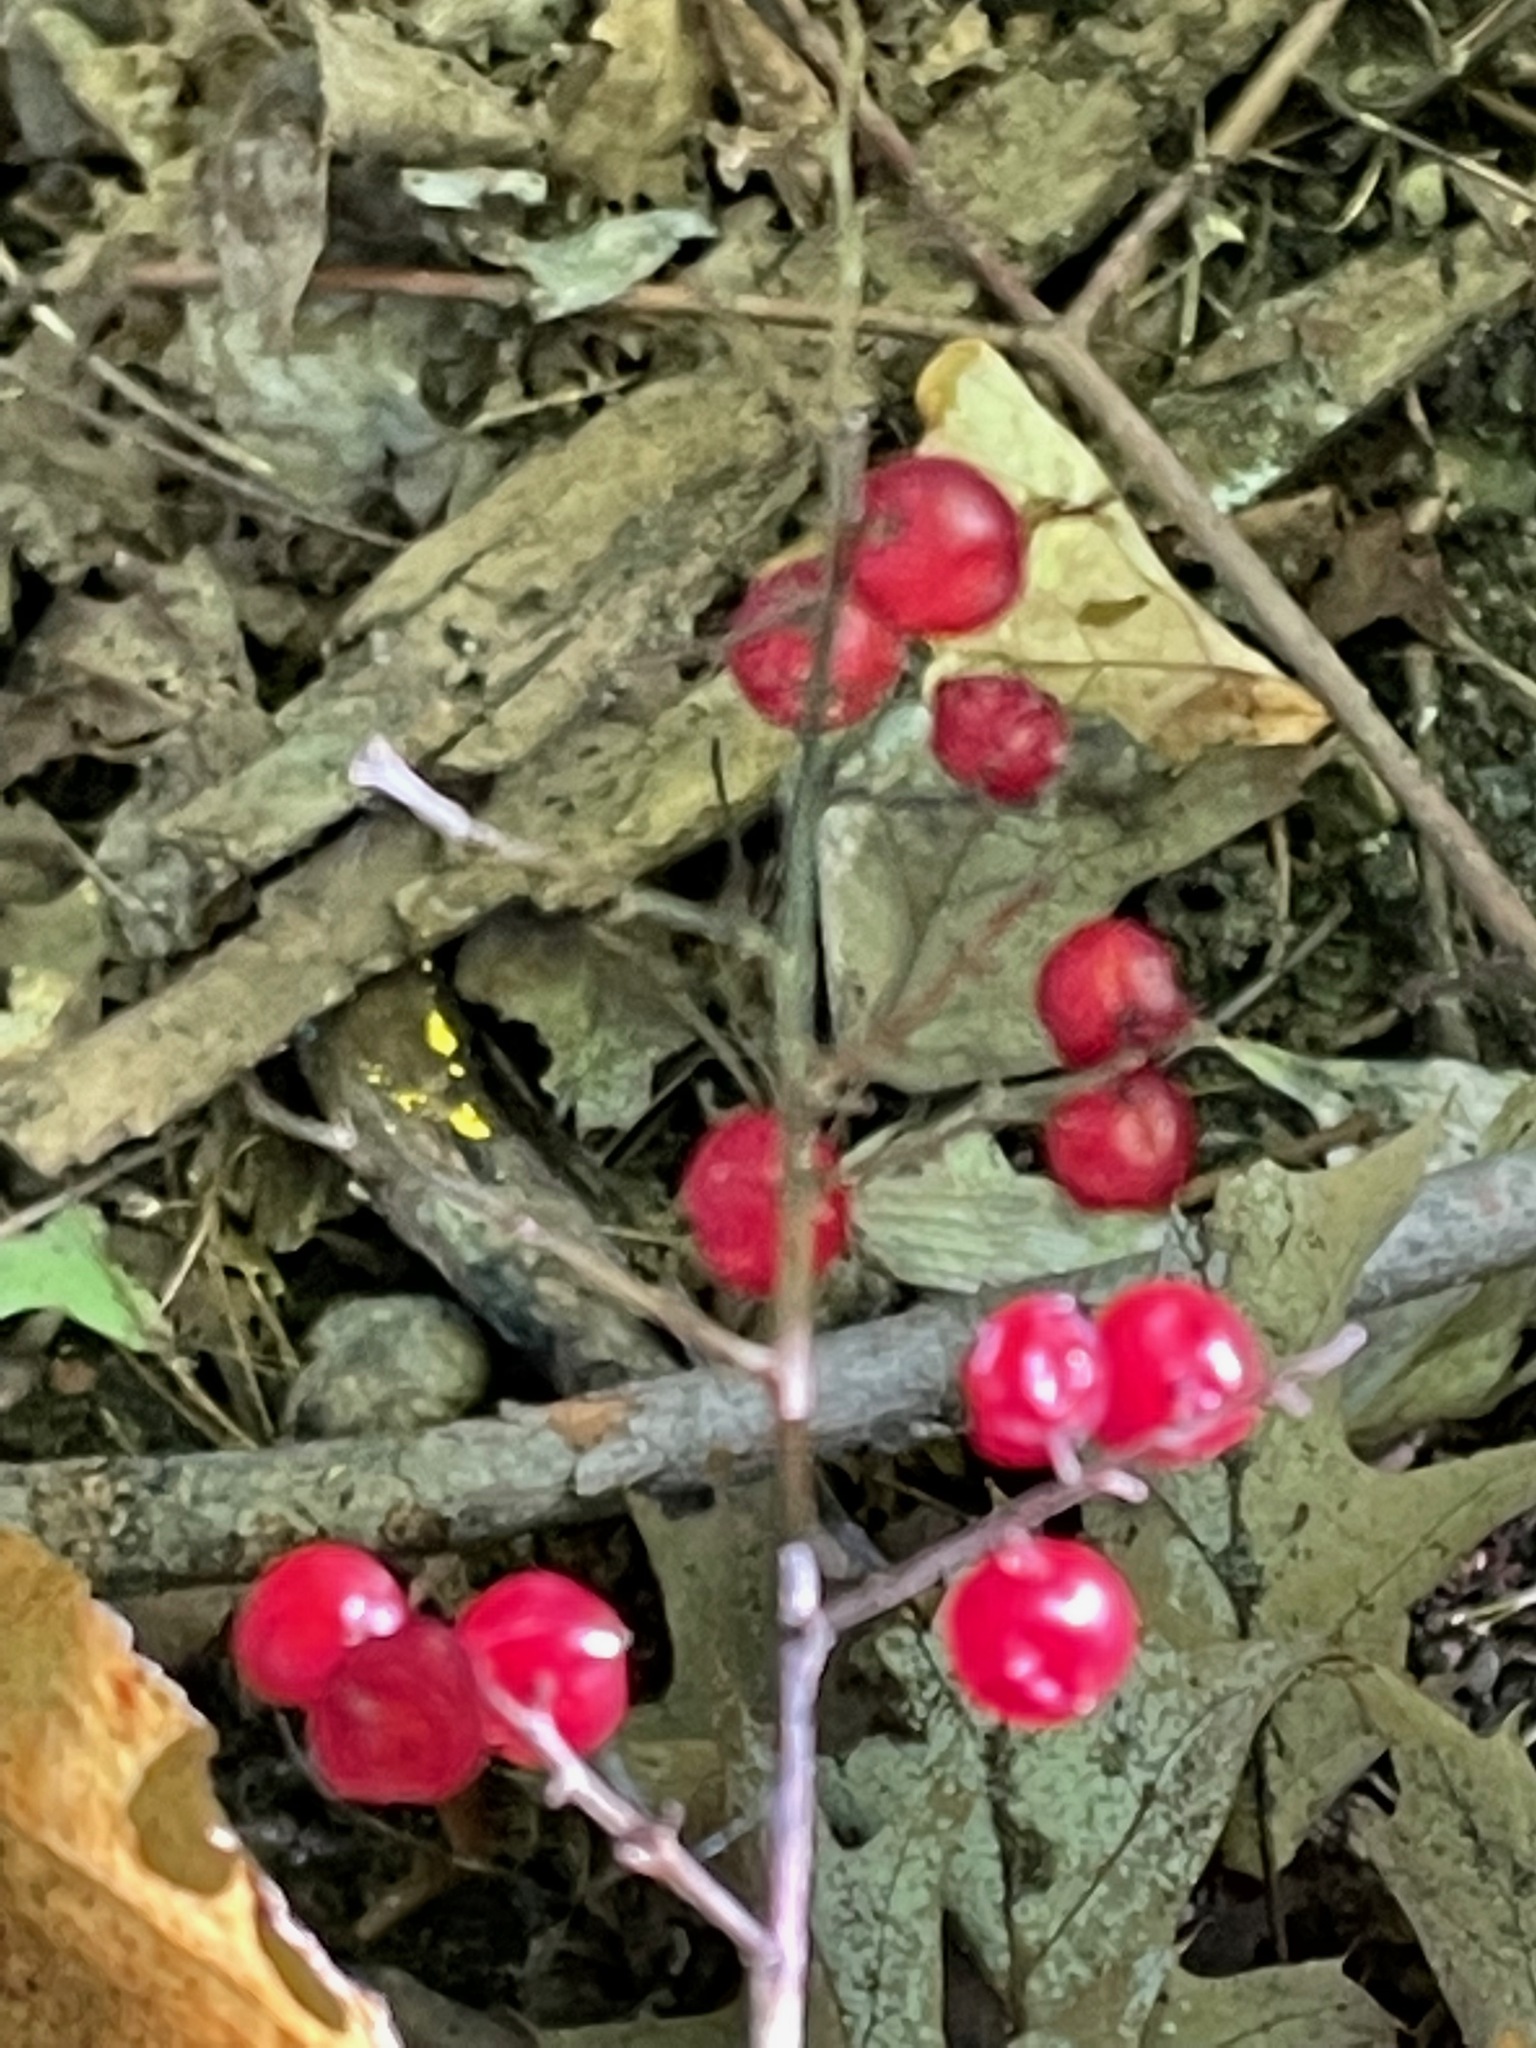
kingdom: Plantae
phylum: Tracheophyta
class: Liliopsida
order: Asparagales
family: Asparagaceae
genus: Maianthemum
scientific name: Maianthemum racemosum
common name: False spikenard
